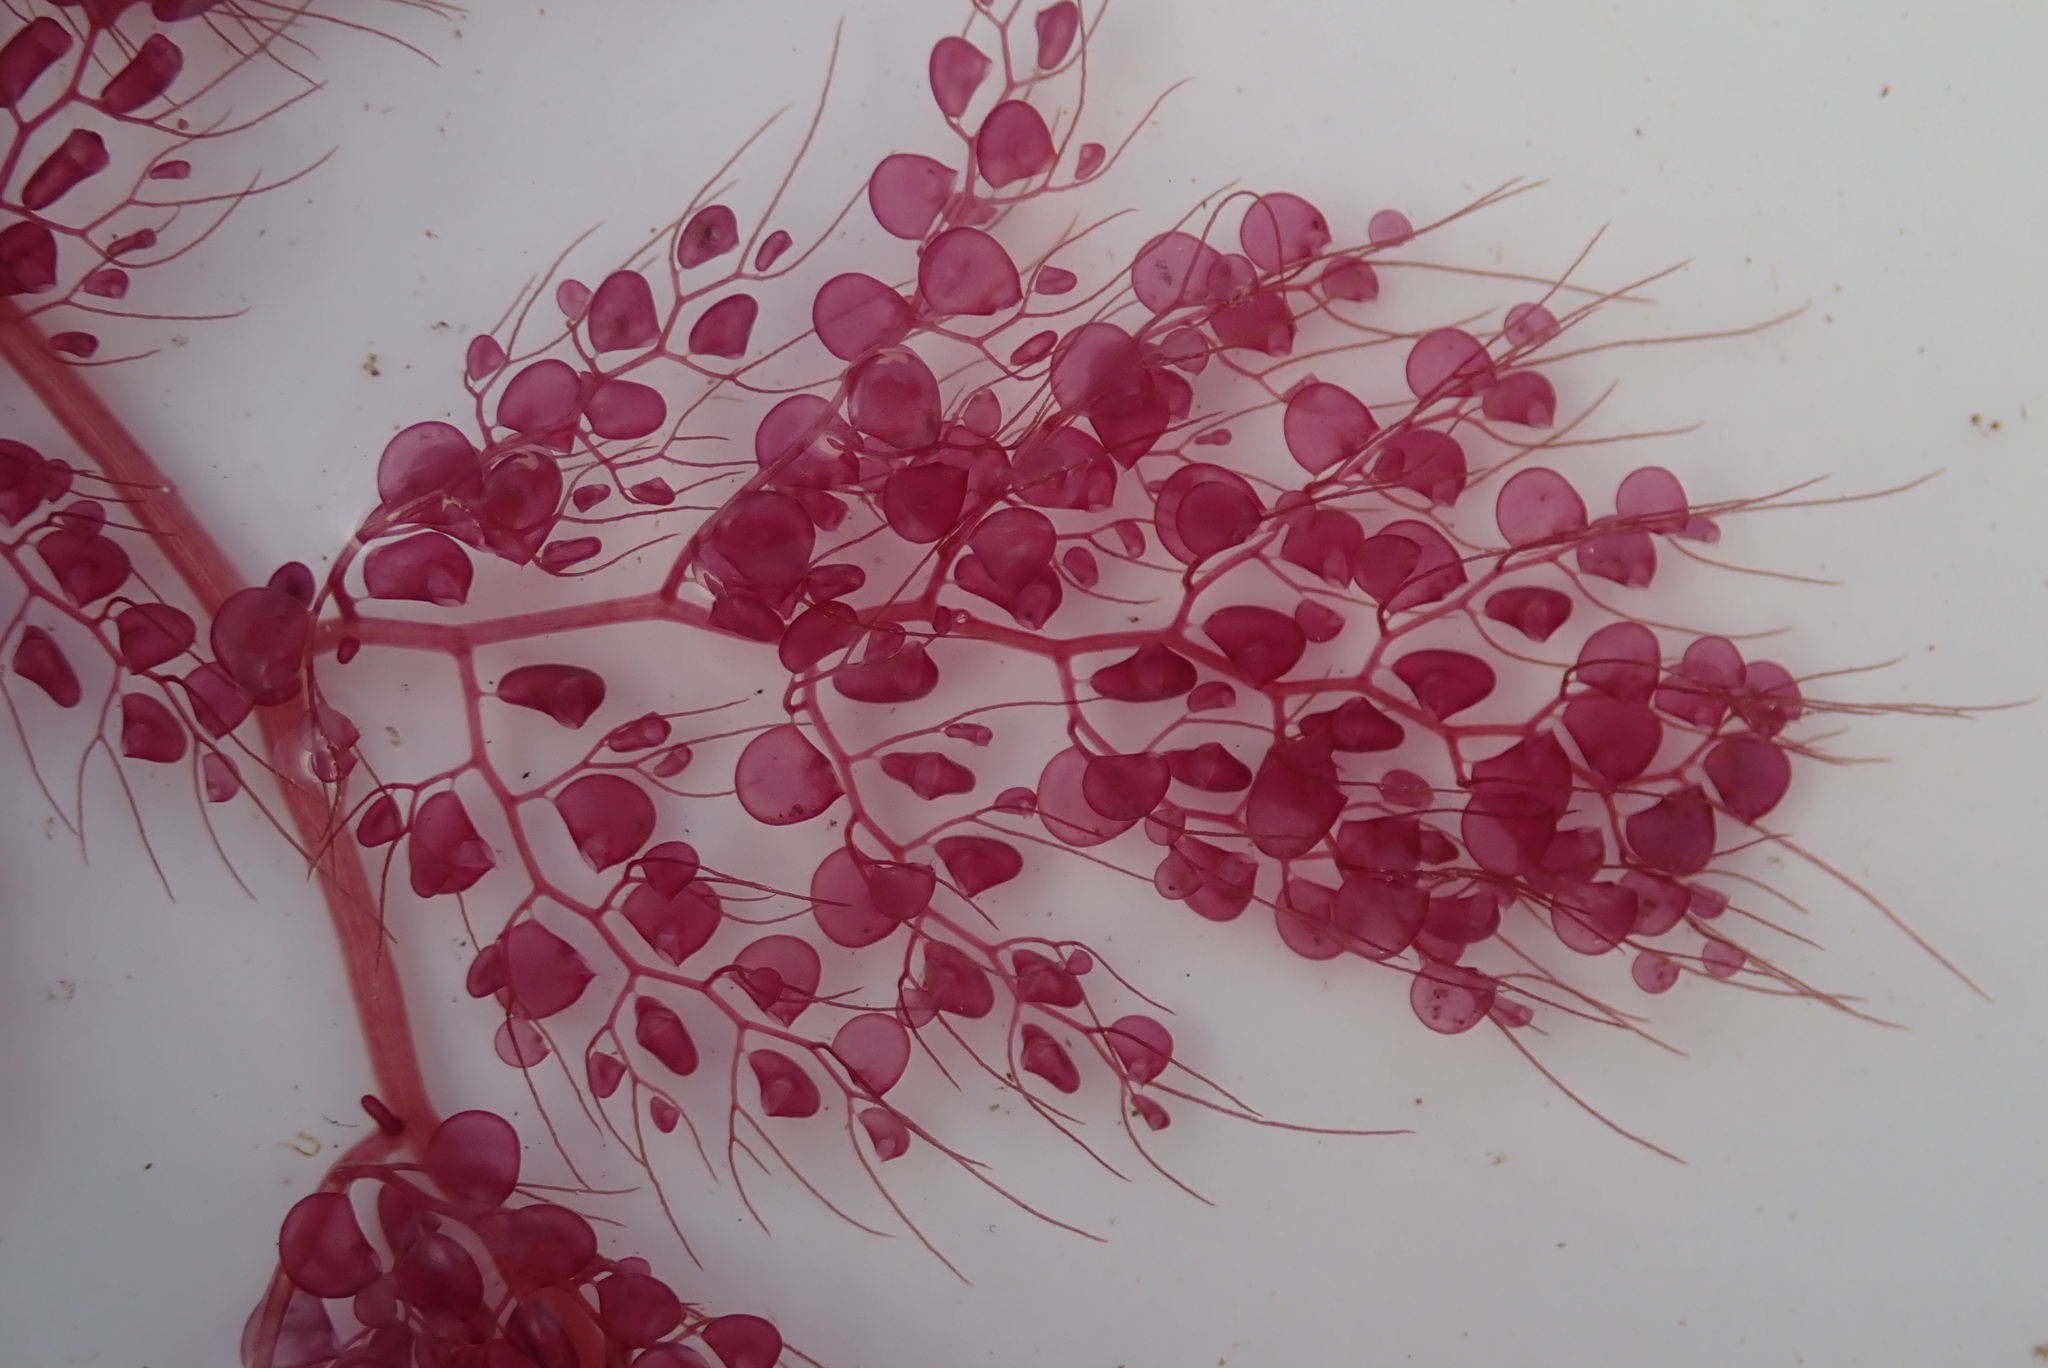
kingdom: Plantae
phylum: Tracheophyta
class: Magnoliopsida
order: Lamiales
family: Lentibulariaceae
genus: Utricularia
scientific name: Utricularia foliosa
